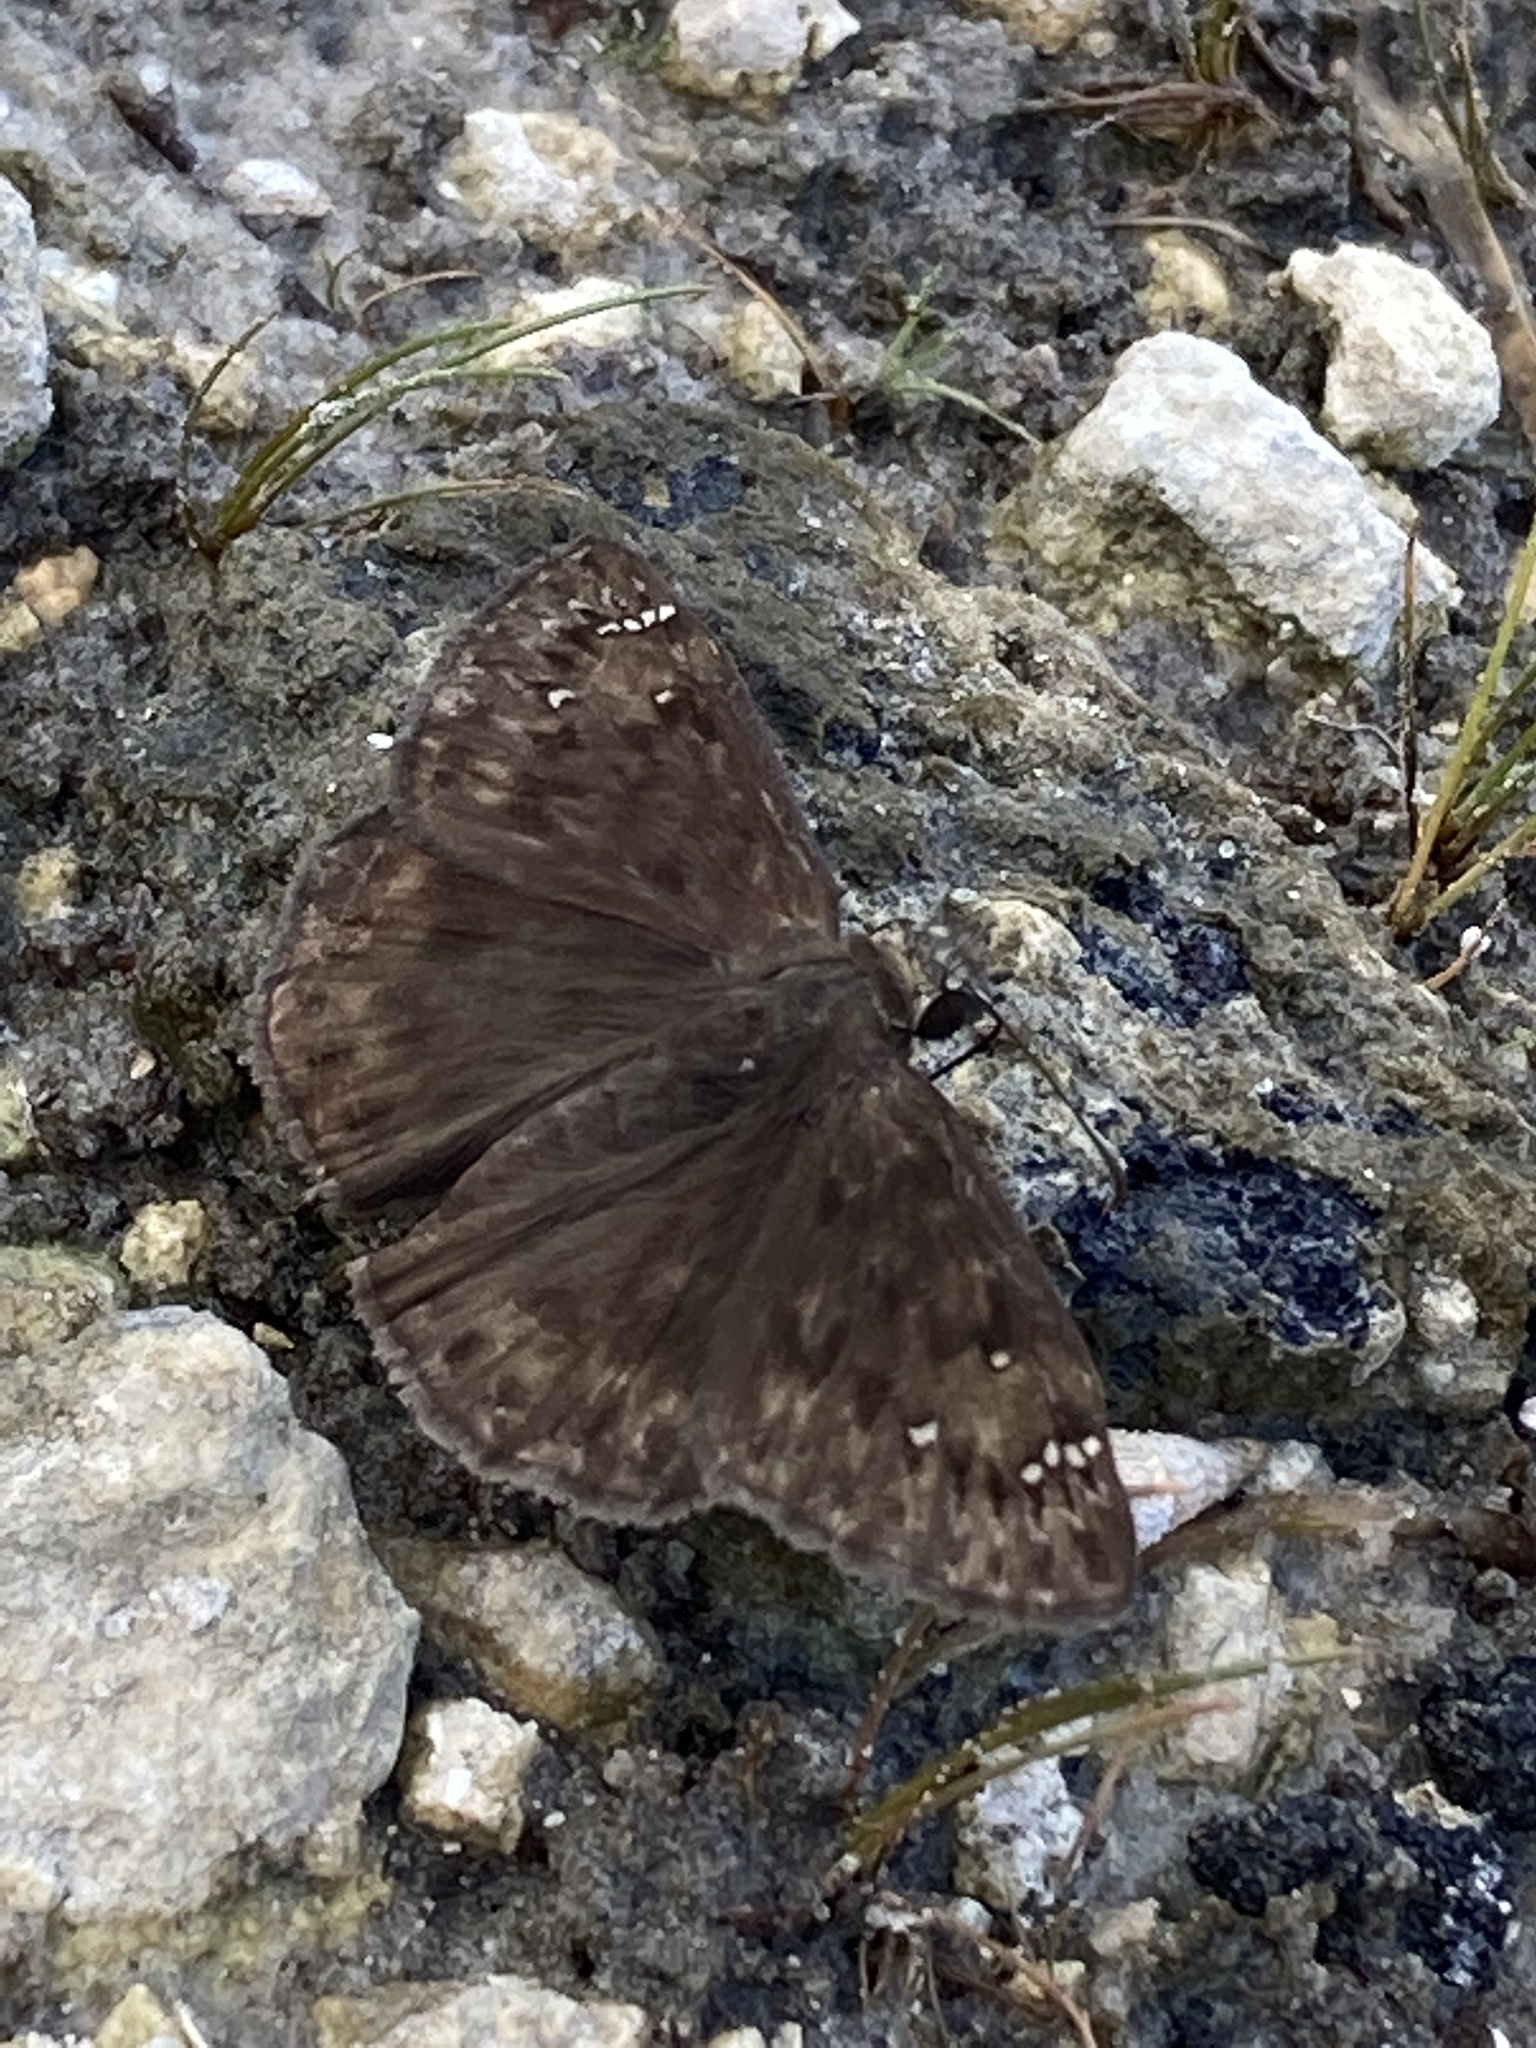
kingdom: Animalia
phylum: Arthropoda
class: Insecta
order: Lepidoptera
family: Hesperiidae
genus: Erynnis
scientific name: Erynnis horatius
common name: Horace's duskywing
